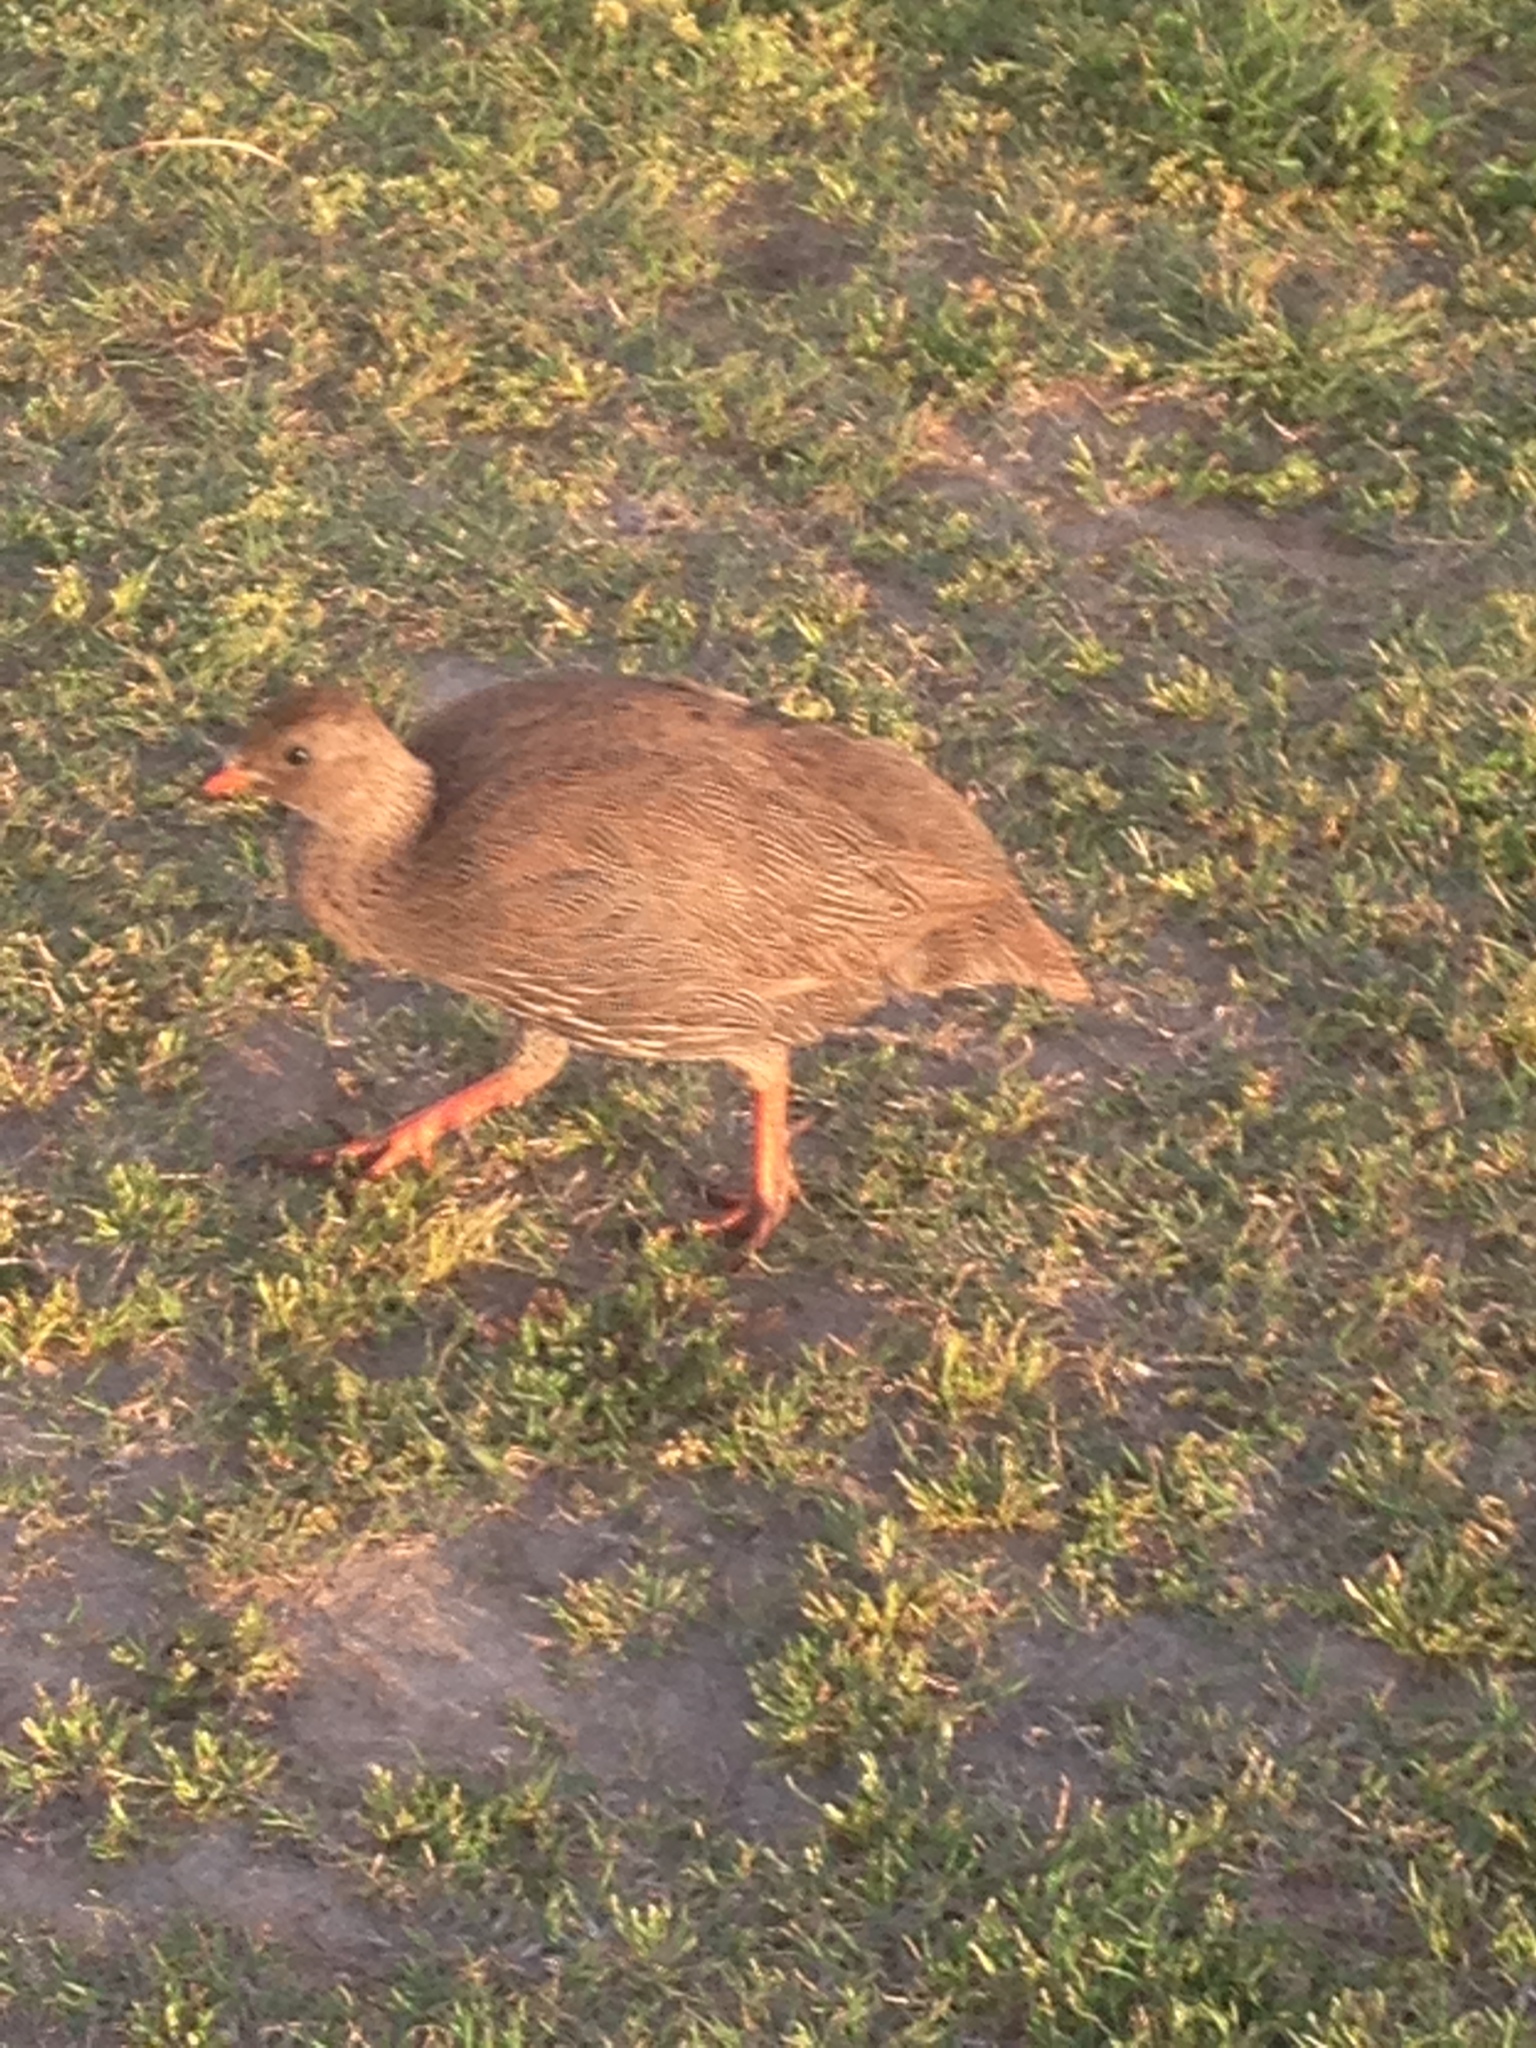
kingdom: Animalia
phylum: Chordata
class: Aves
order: Galliformes
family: Phasianidae
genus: Pternistis
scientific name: Pternistis capensis
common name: Cape spurfowl
